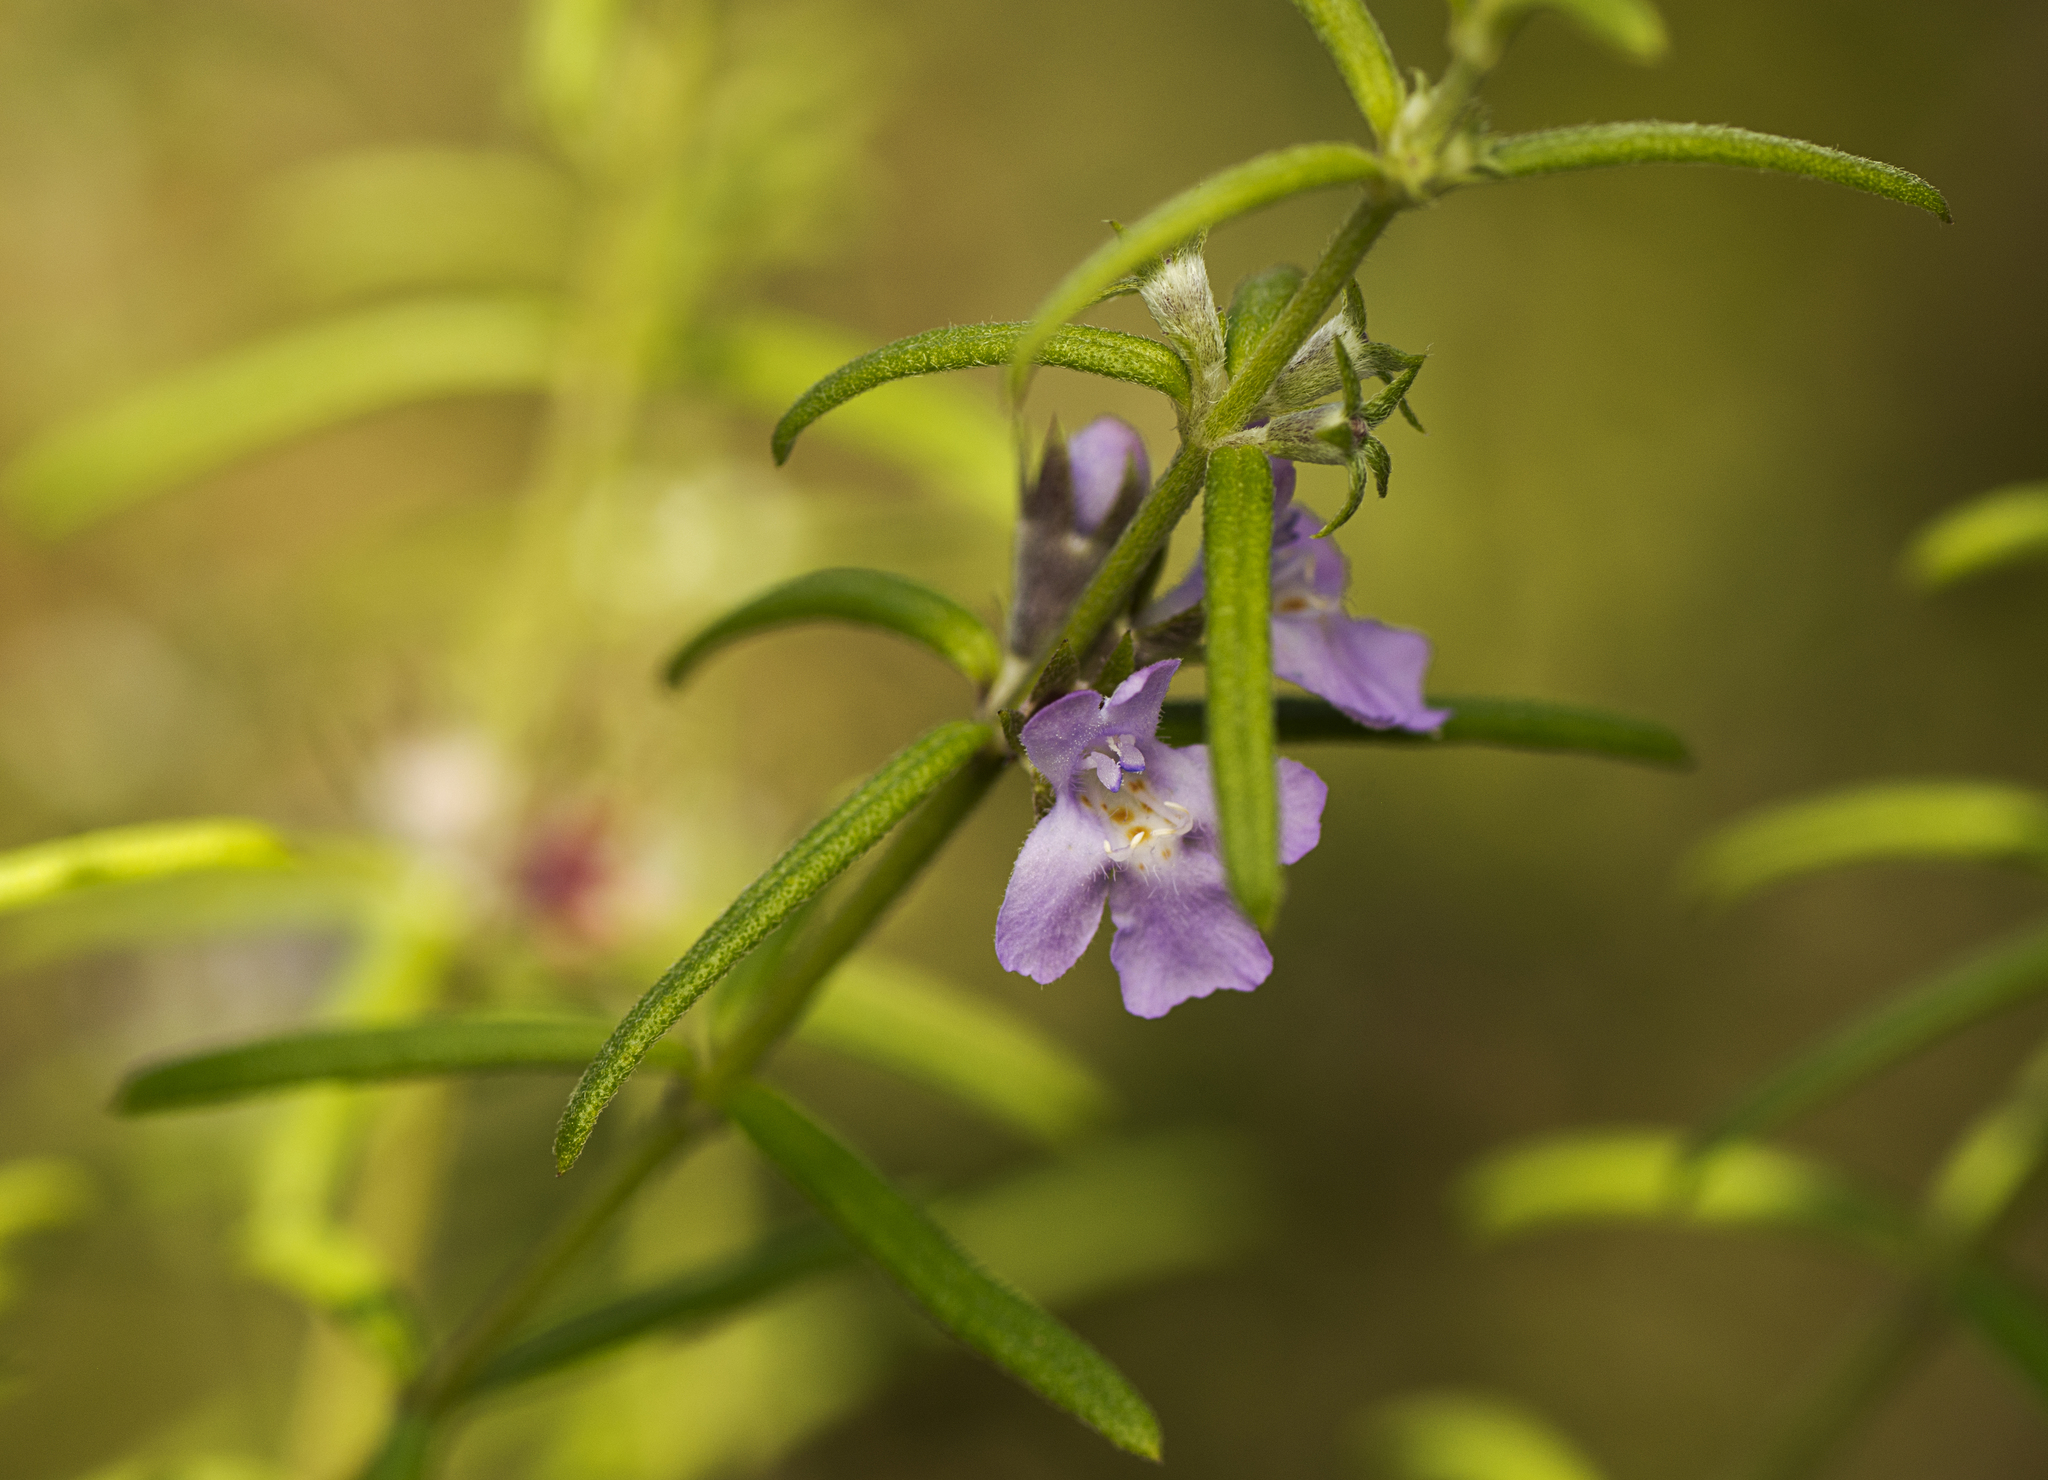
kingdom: Plantae
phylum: Tracheophyta
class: Magnoliopsida
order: Lamiales
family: Lamiaceae
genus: Westringia
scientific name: Westringia eremicola
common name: Slender western-rosemary
